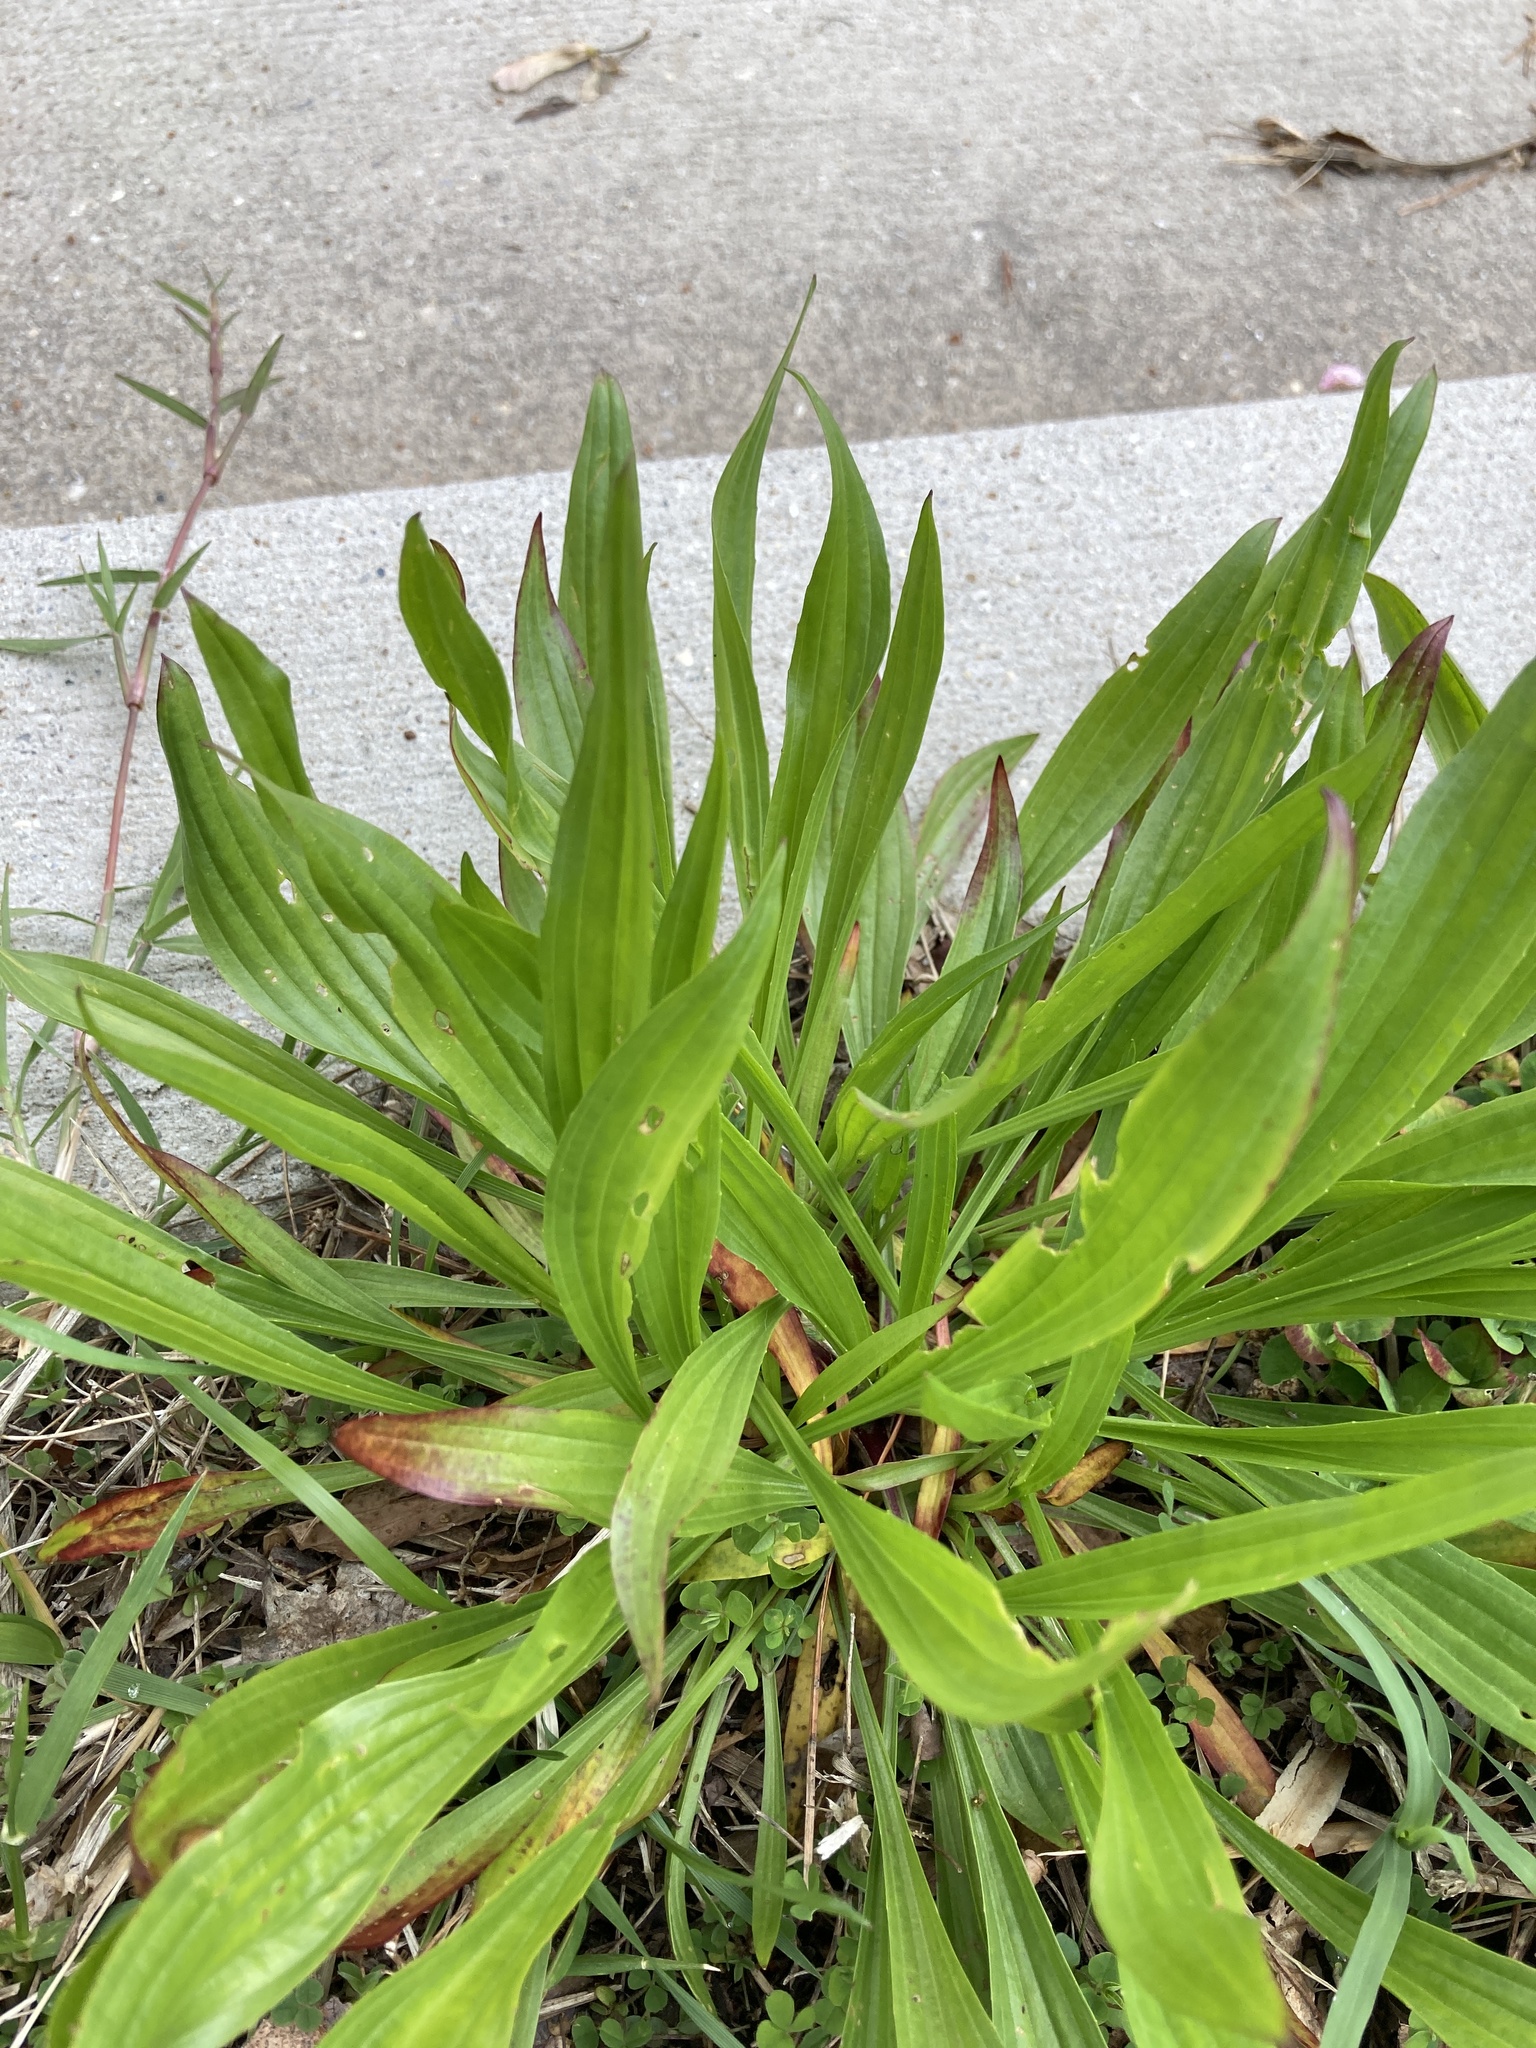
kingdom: Plantae
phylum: Tracheophyta
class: Magnoliopsida
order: Lamiales
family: Plantaginaceae
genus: Plantago
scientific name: Plantago lanceolata
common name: Ribwort plantain
